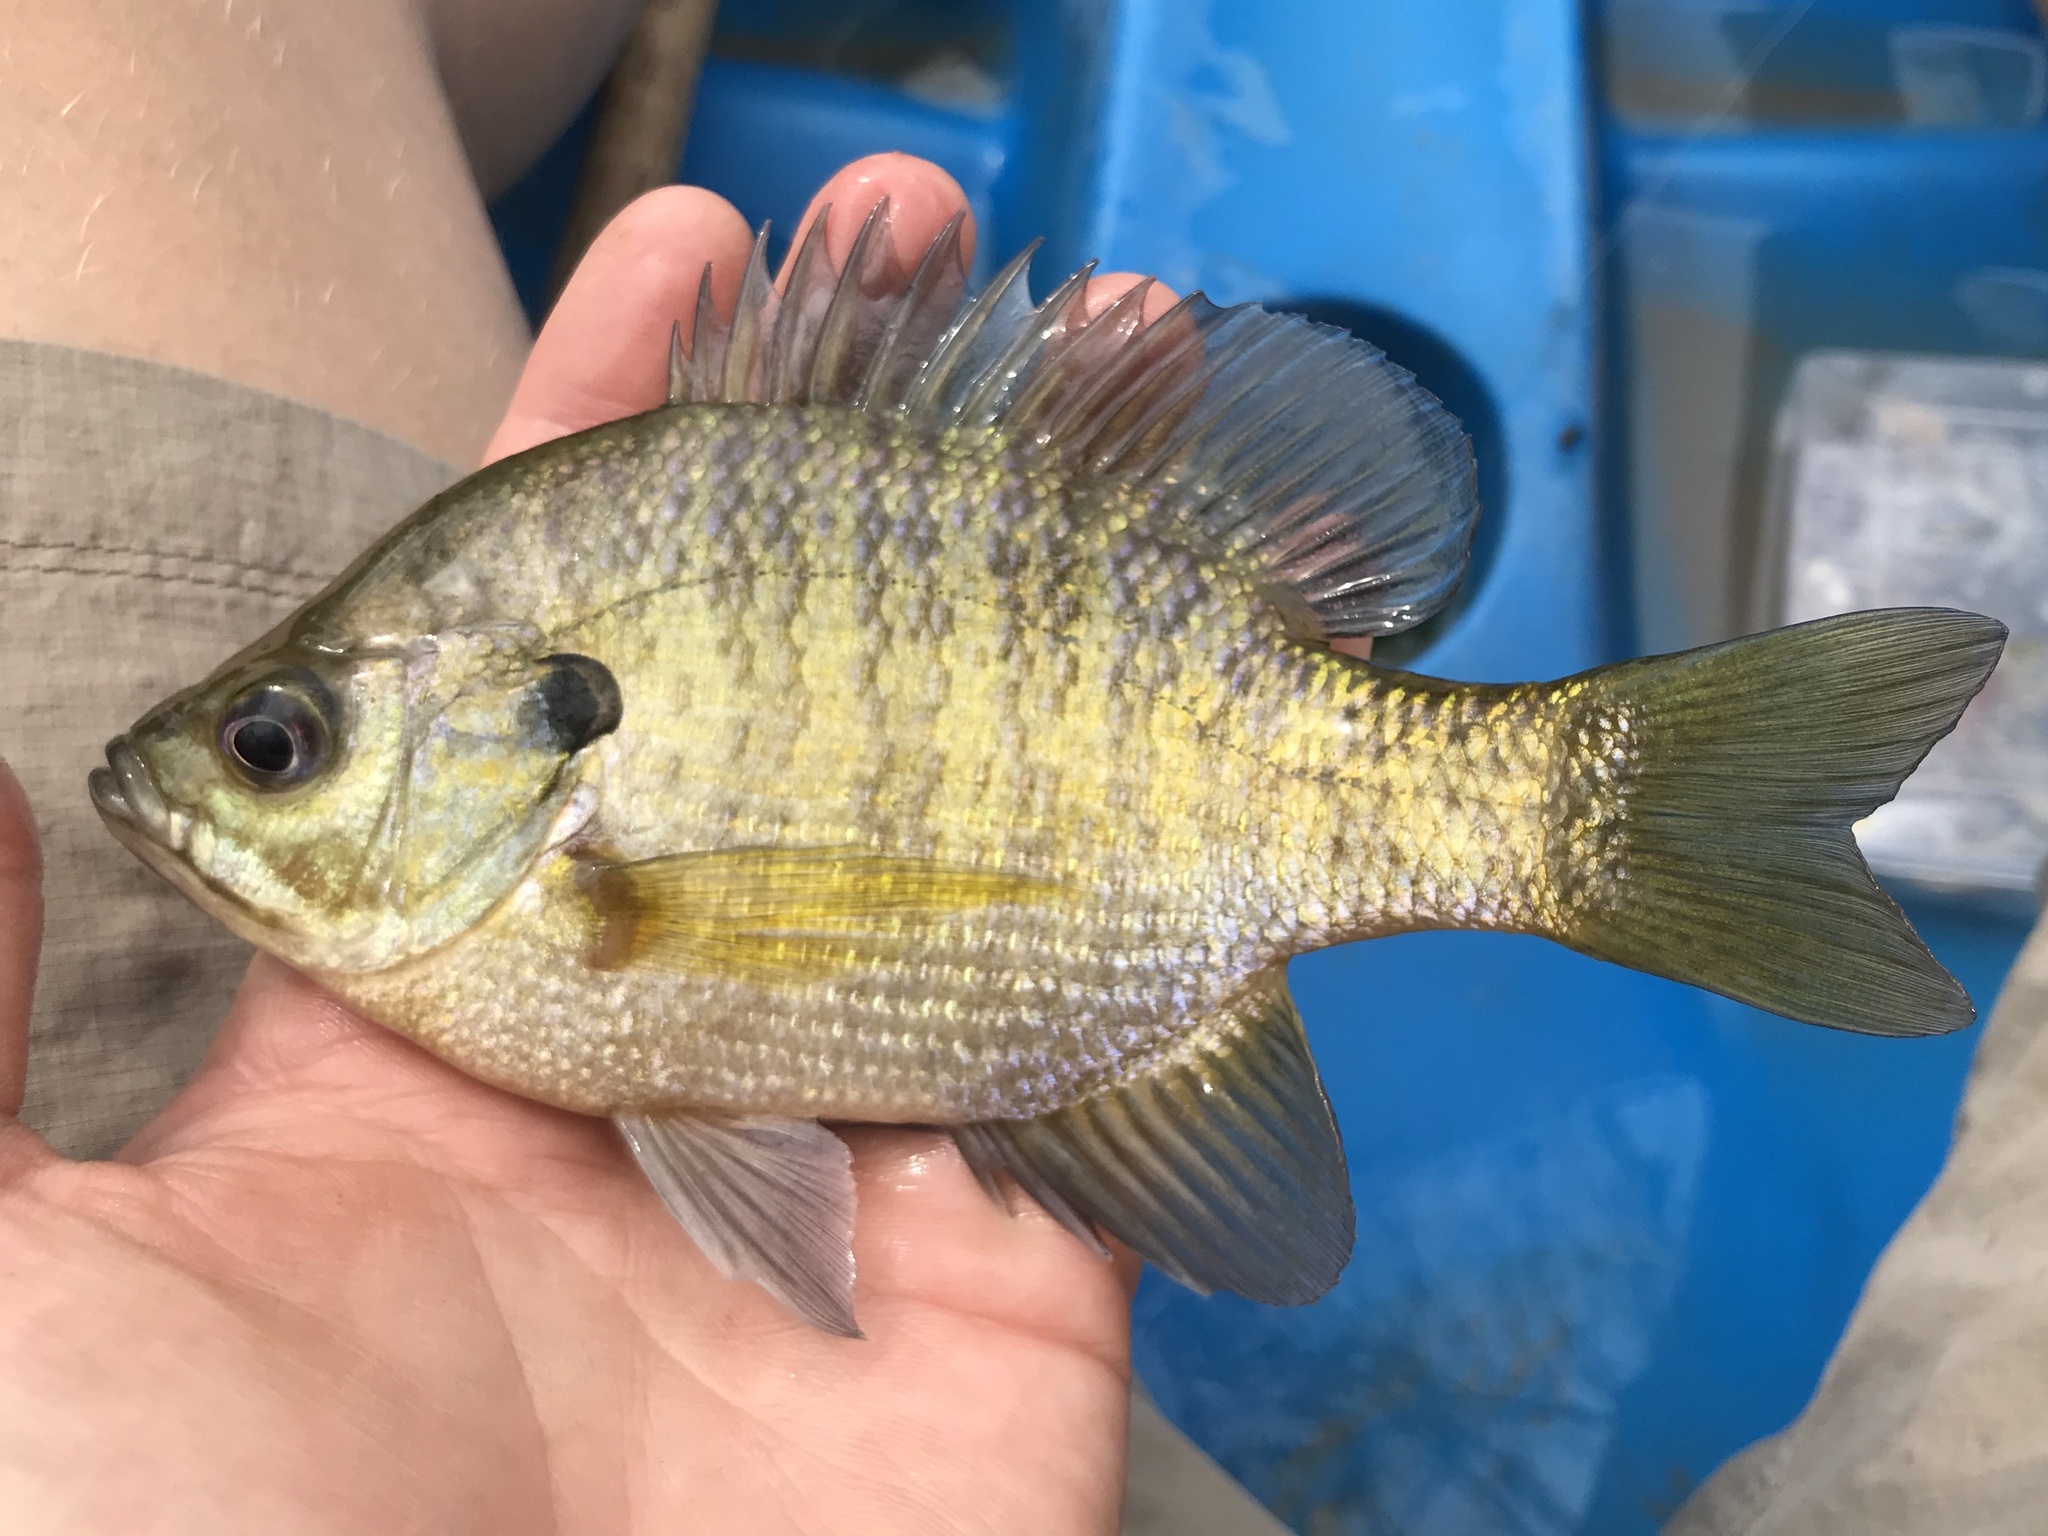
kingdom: Animalia
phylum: Chordata
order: Perciformes
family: Centrarchidae
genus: Lepomis
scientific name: Lepomis macrochirus
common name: Bluegill
